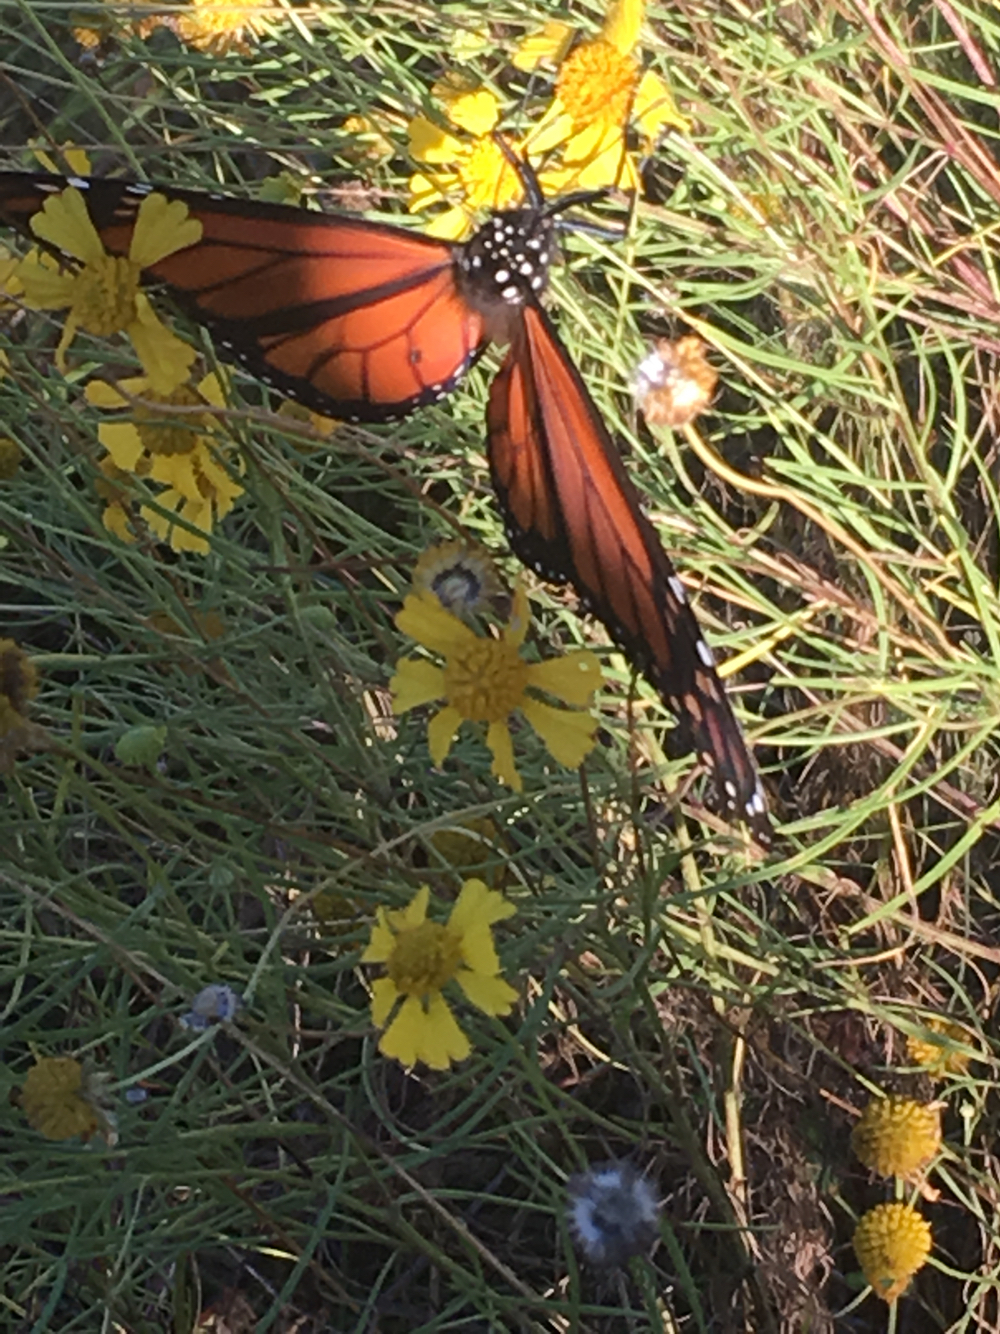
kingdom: Animalia
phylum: Arthropoda
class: Insecta
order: Lepidoptera
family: Nymphalidae
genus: Danaus
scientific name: Danaus plexippus
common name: Monarch
